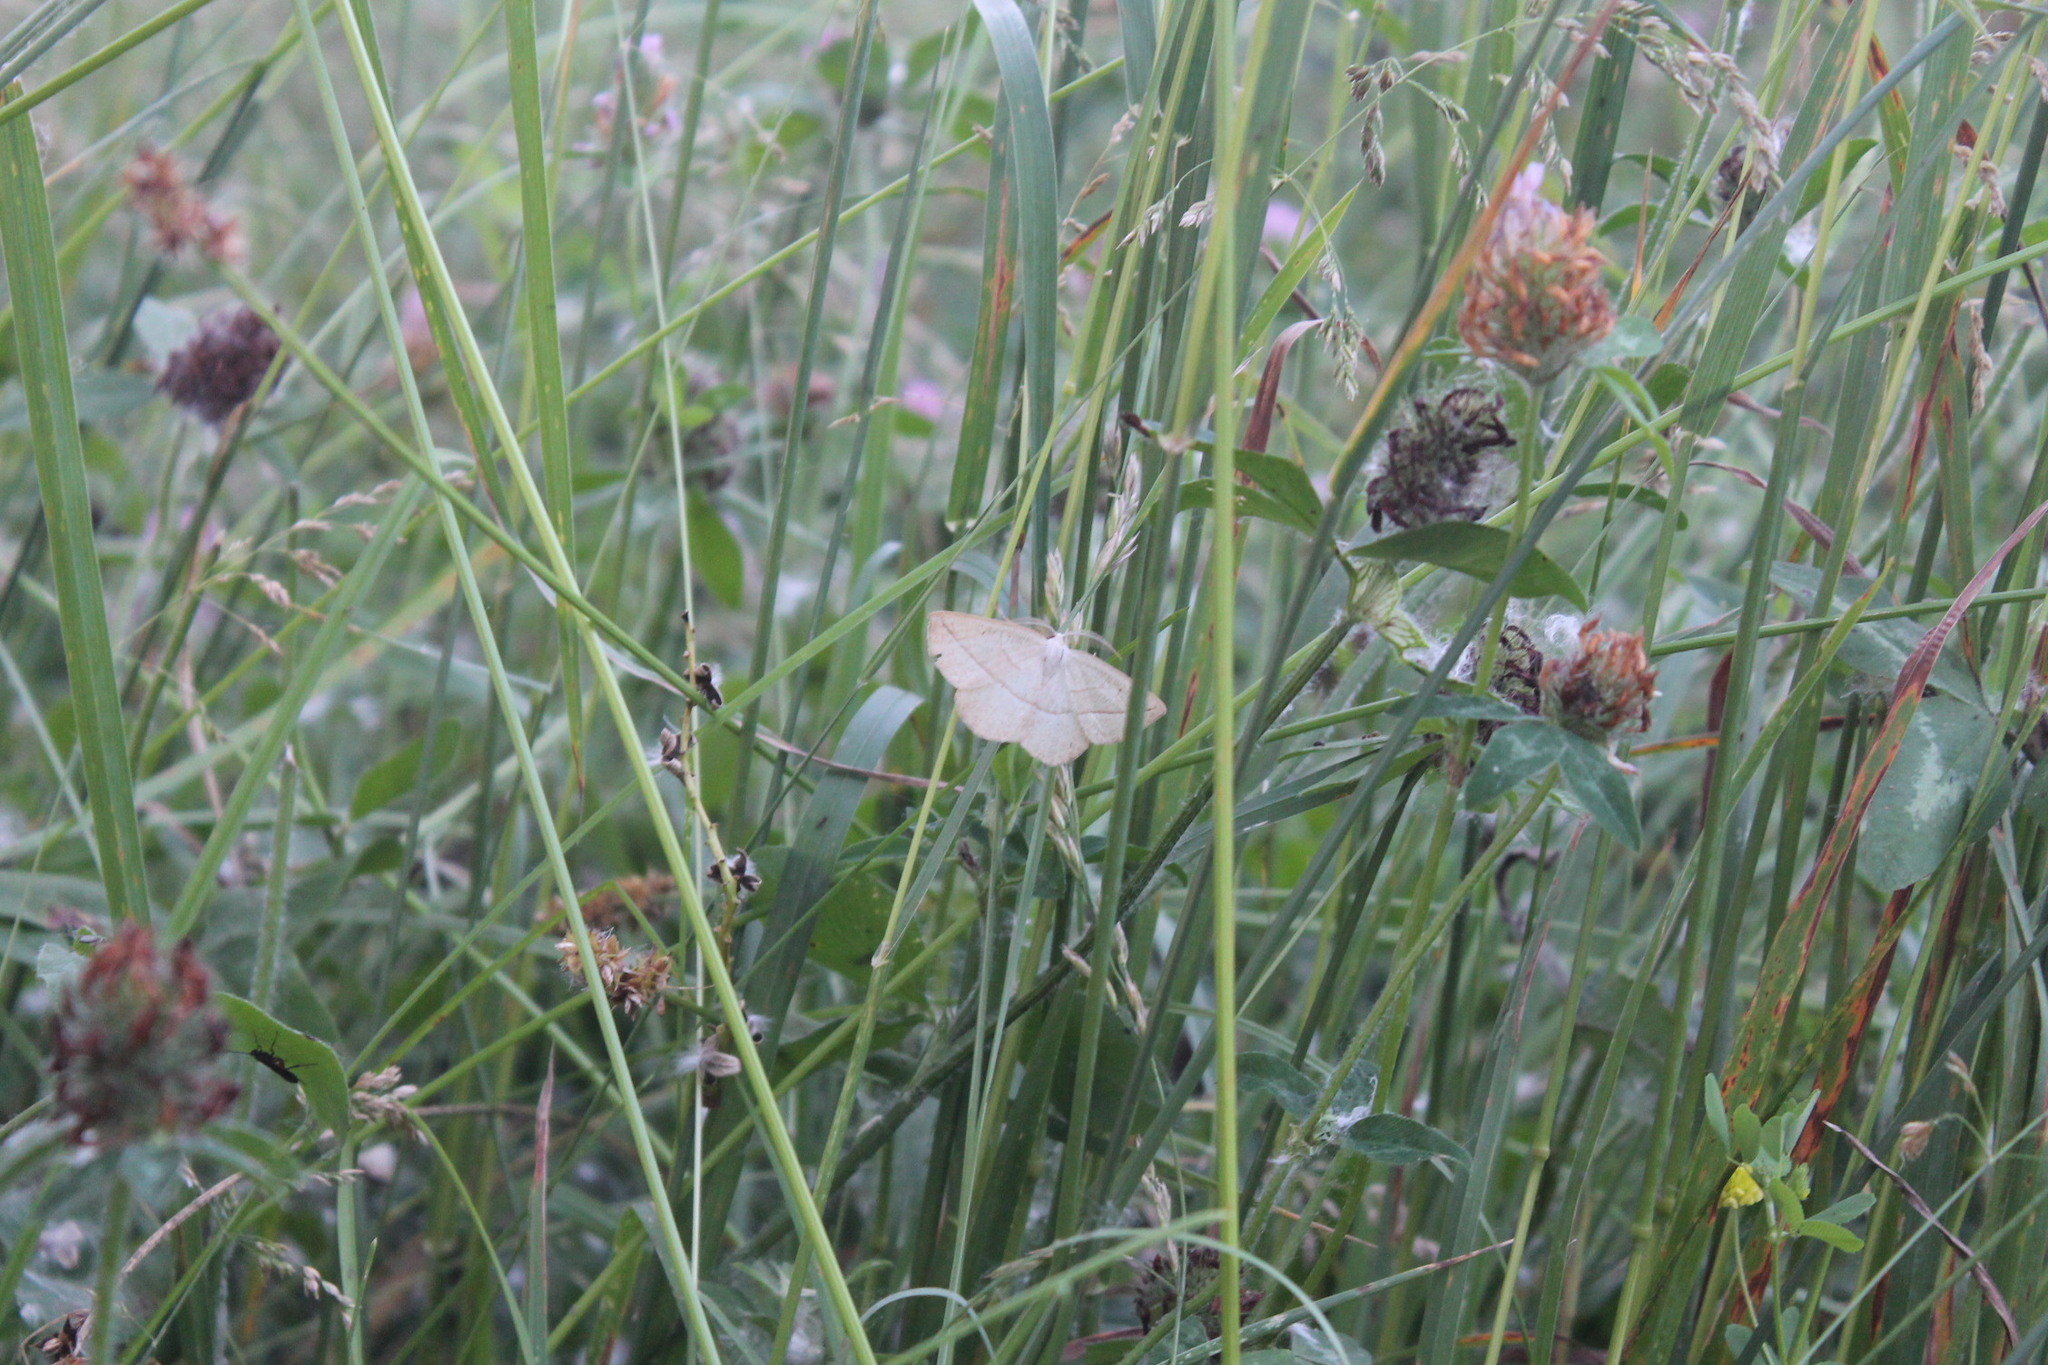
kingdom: Animalia
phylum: Arthropoda
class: Insecta
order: Lepidoptera
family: Geometridae
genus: Eusarca
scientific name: Eusarca confusaria
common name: Confused eusarca
